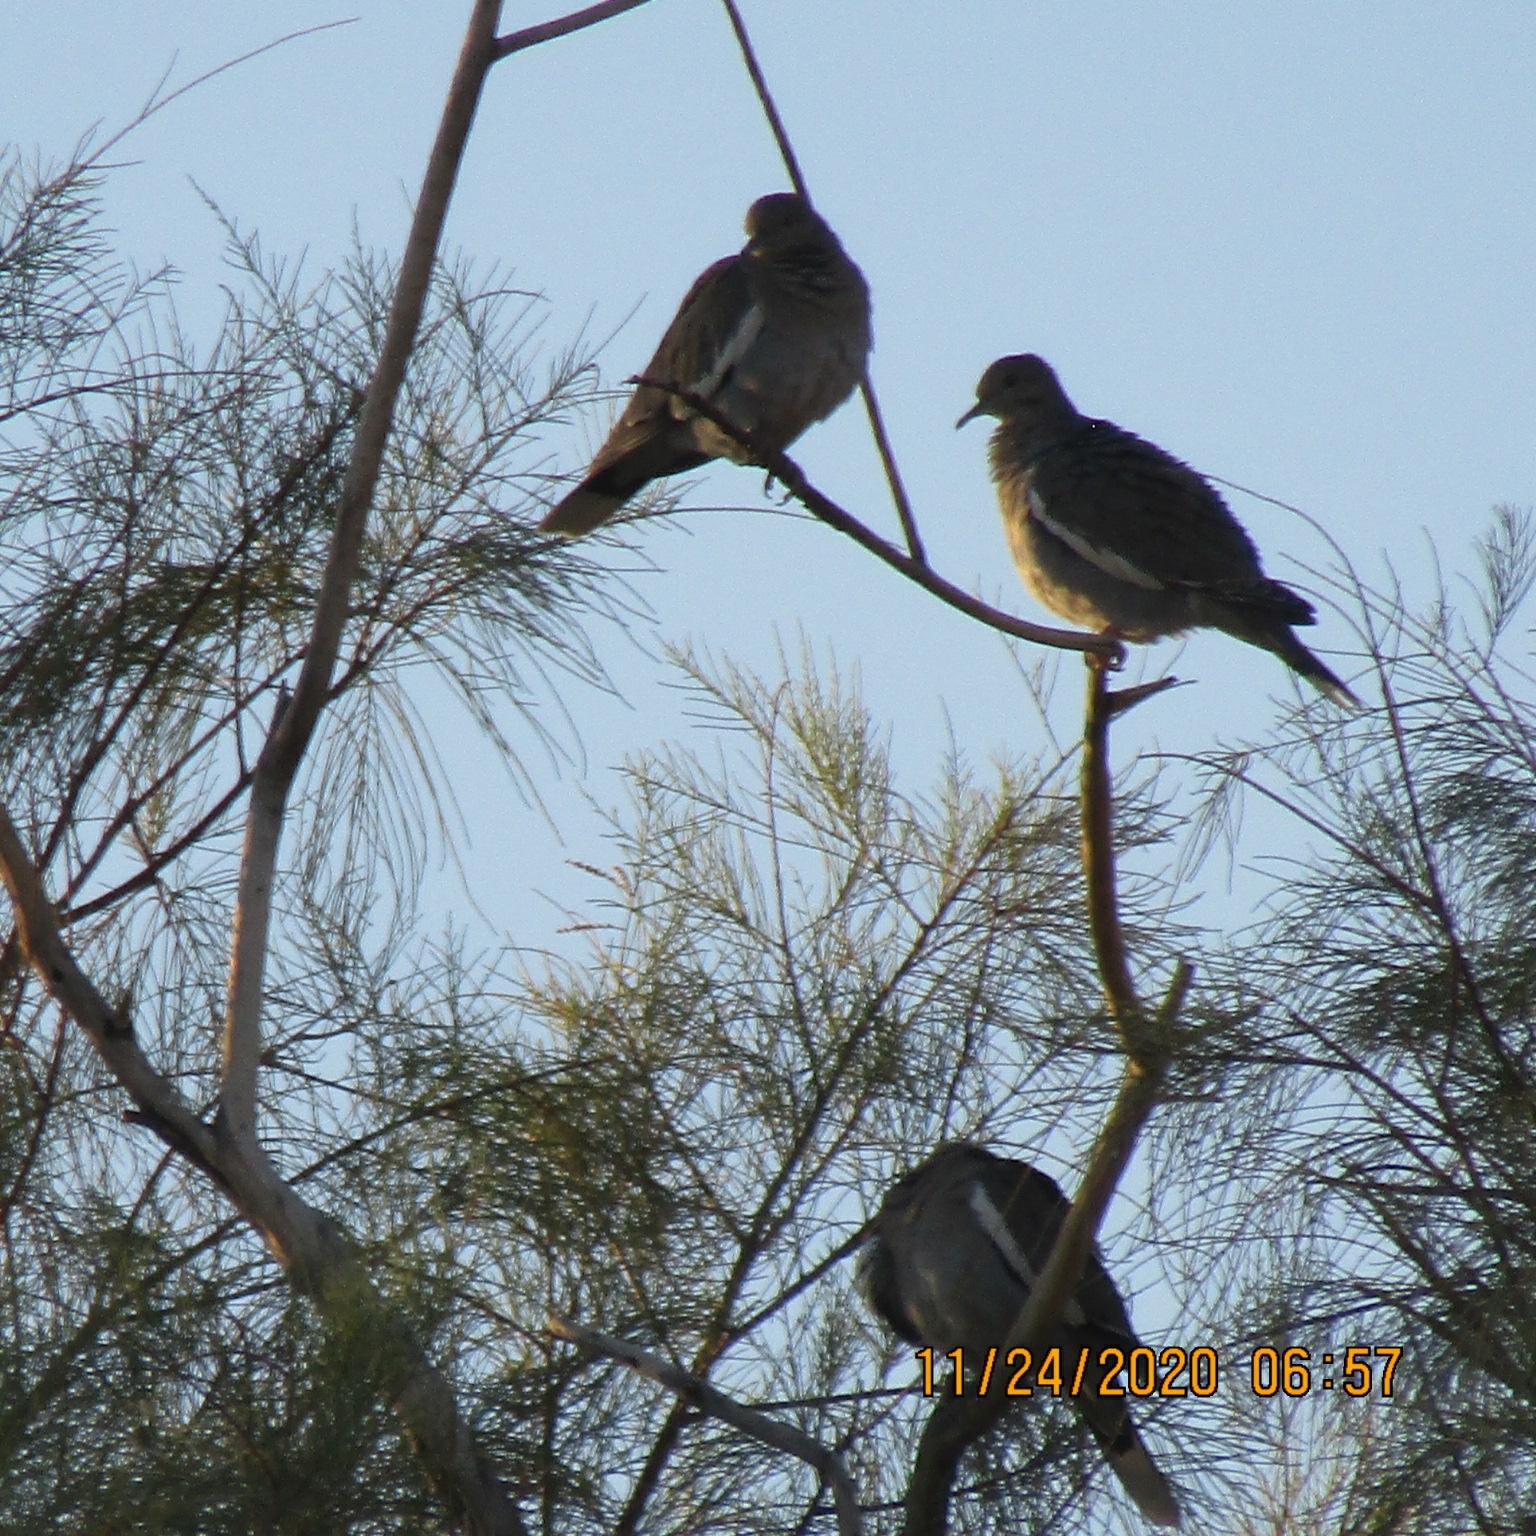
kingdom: Animalia
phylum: Chordata
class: Aves
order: Columbiformes
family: Columbidae
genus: Zenaida
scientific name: Zenaida asiatica
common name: White-winged dove
